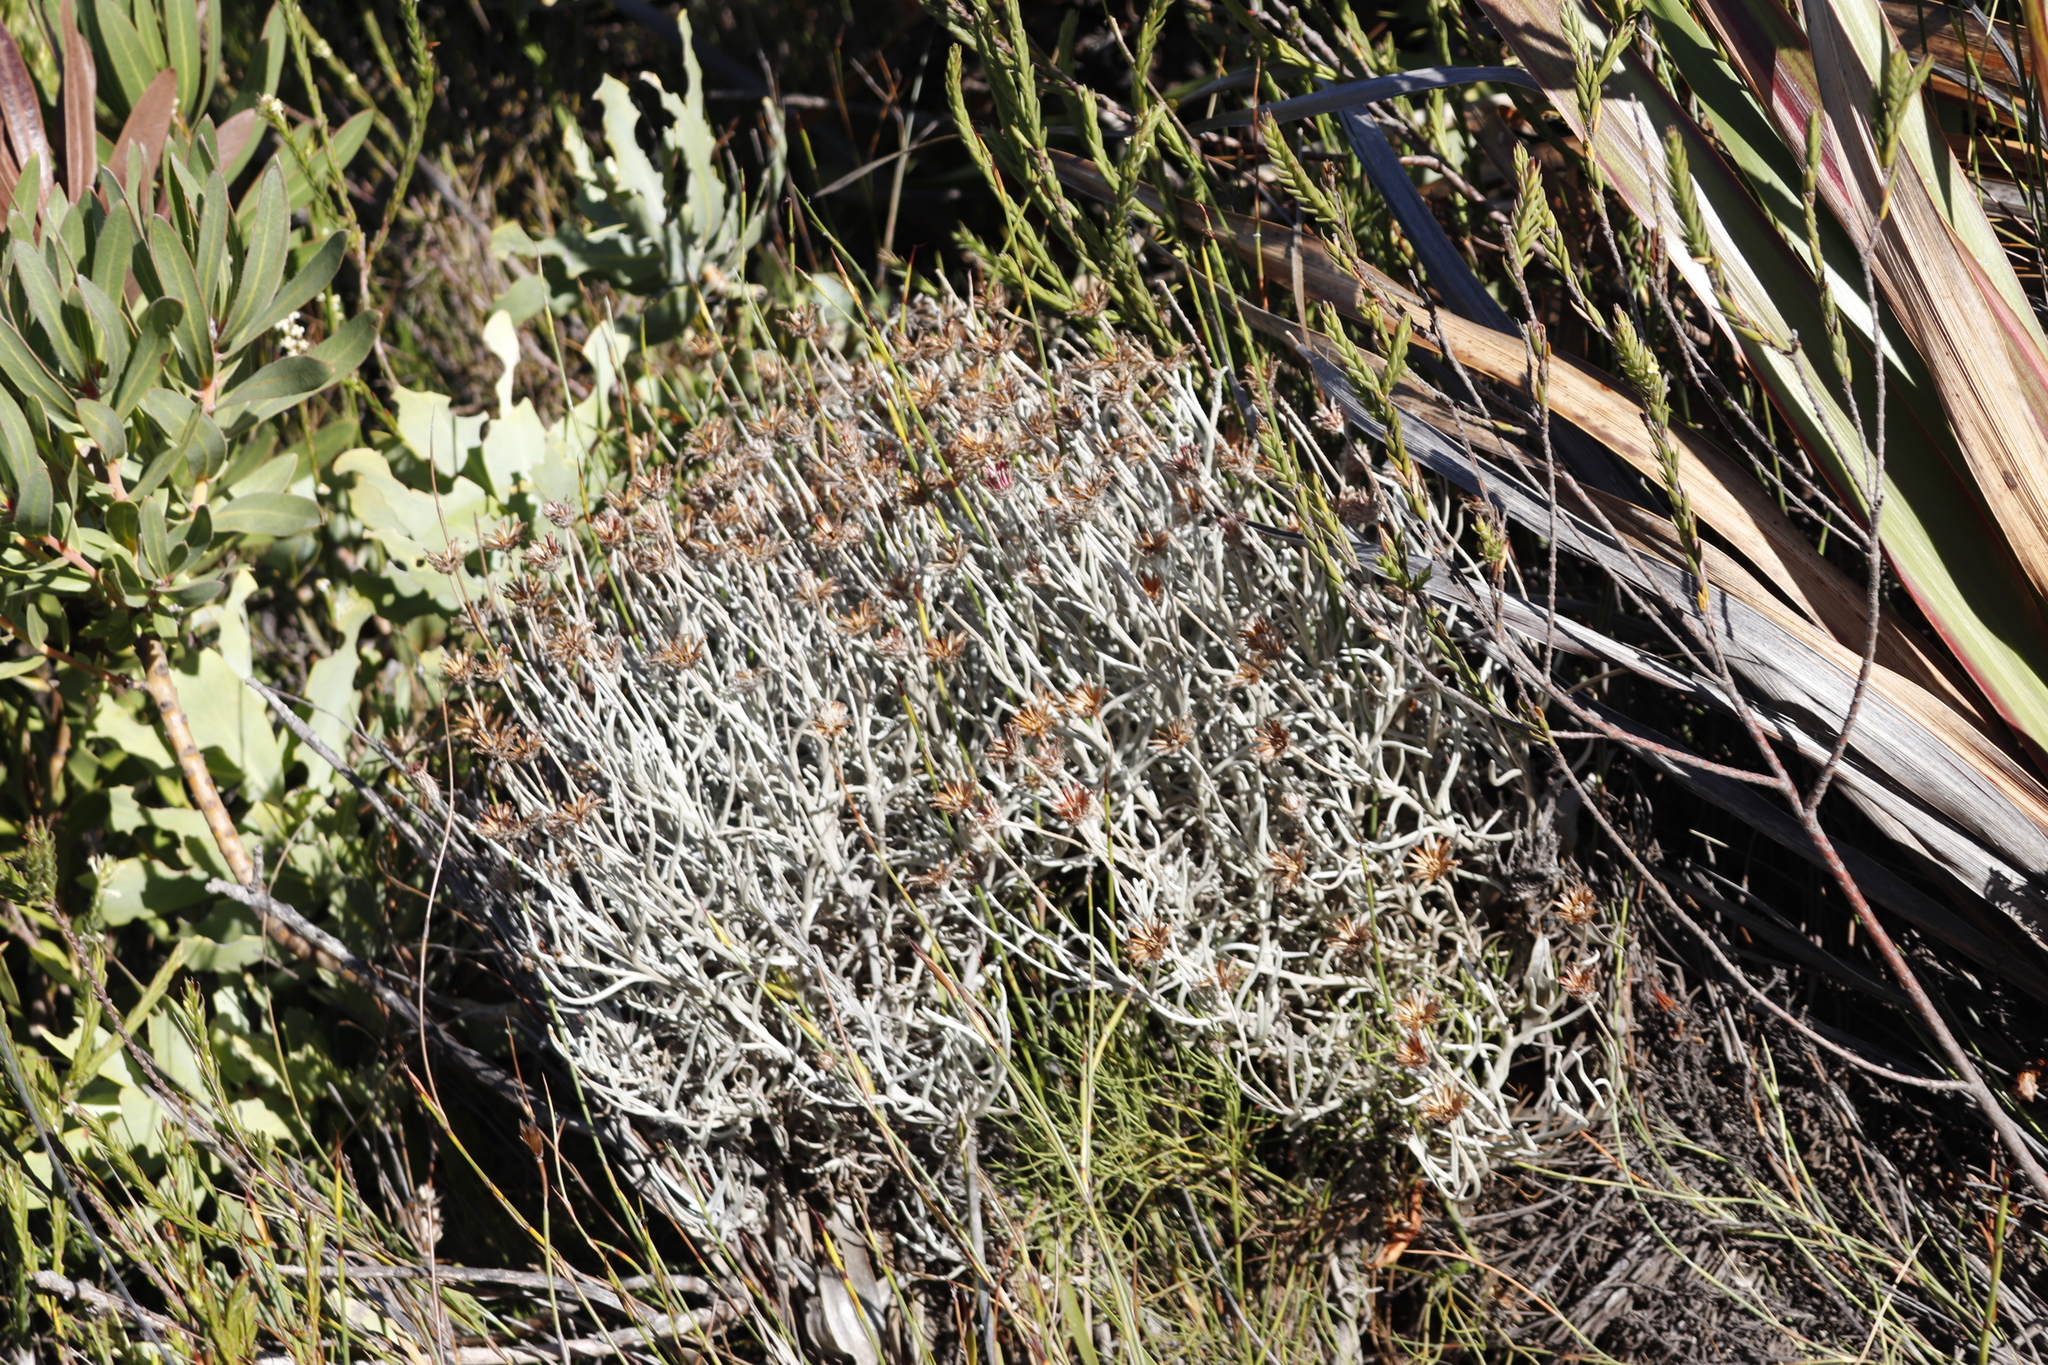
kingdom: Plantae
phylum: Tracheophyta
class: Magnoliopsida
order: Asterales
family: Asteraceae
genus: Syncarpha
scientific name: Syncarpha gnaphaloides
